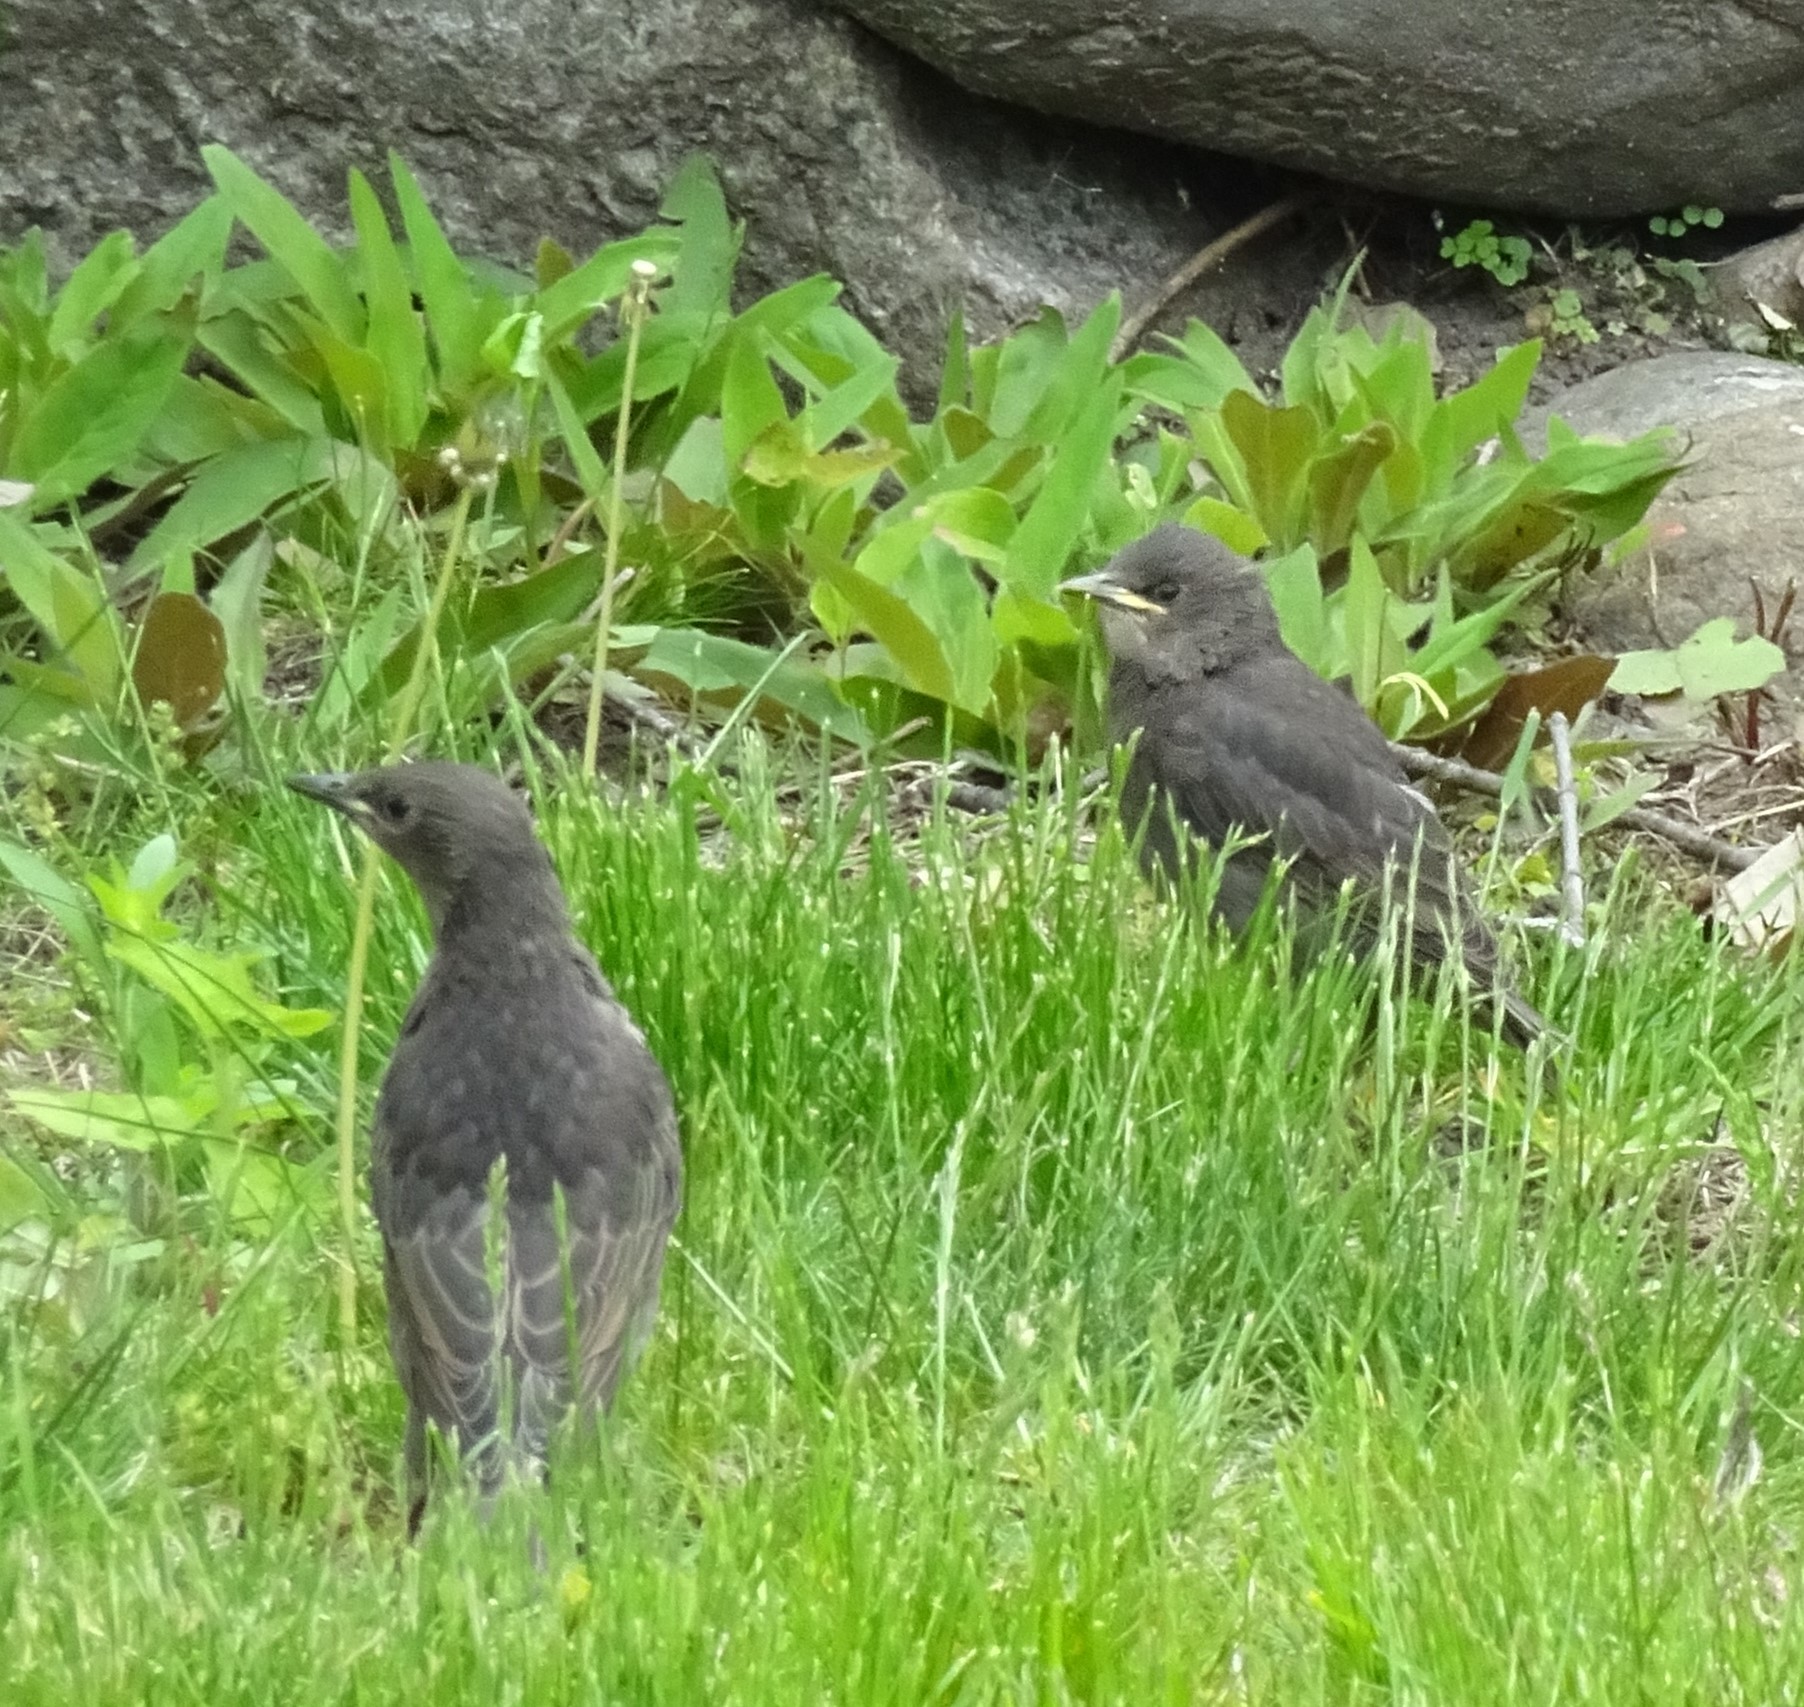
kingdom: Animalia
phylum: Chordata
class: Aves
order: Passeriformes
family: Sturnidae
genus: Sturnus
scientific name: Sturnus vulgaris
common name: Common starling
